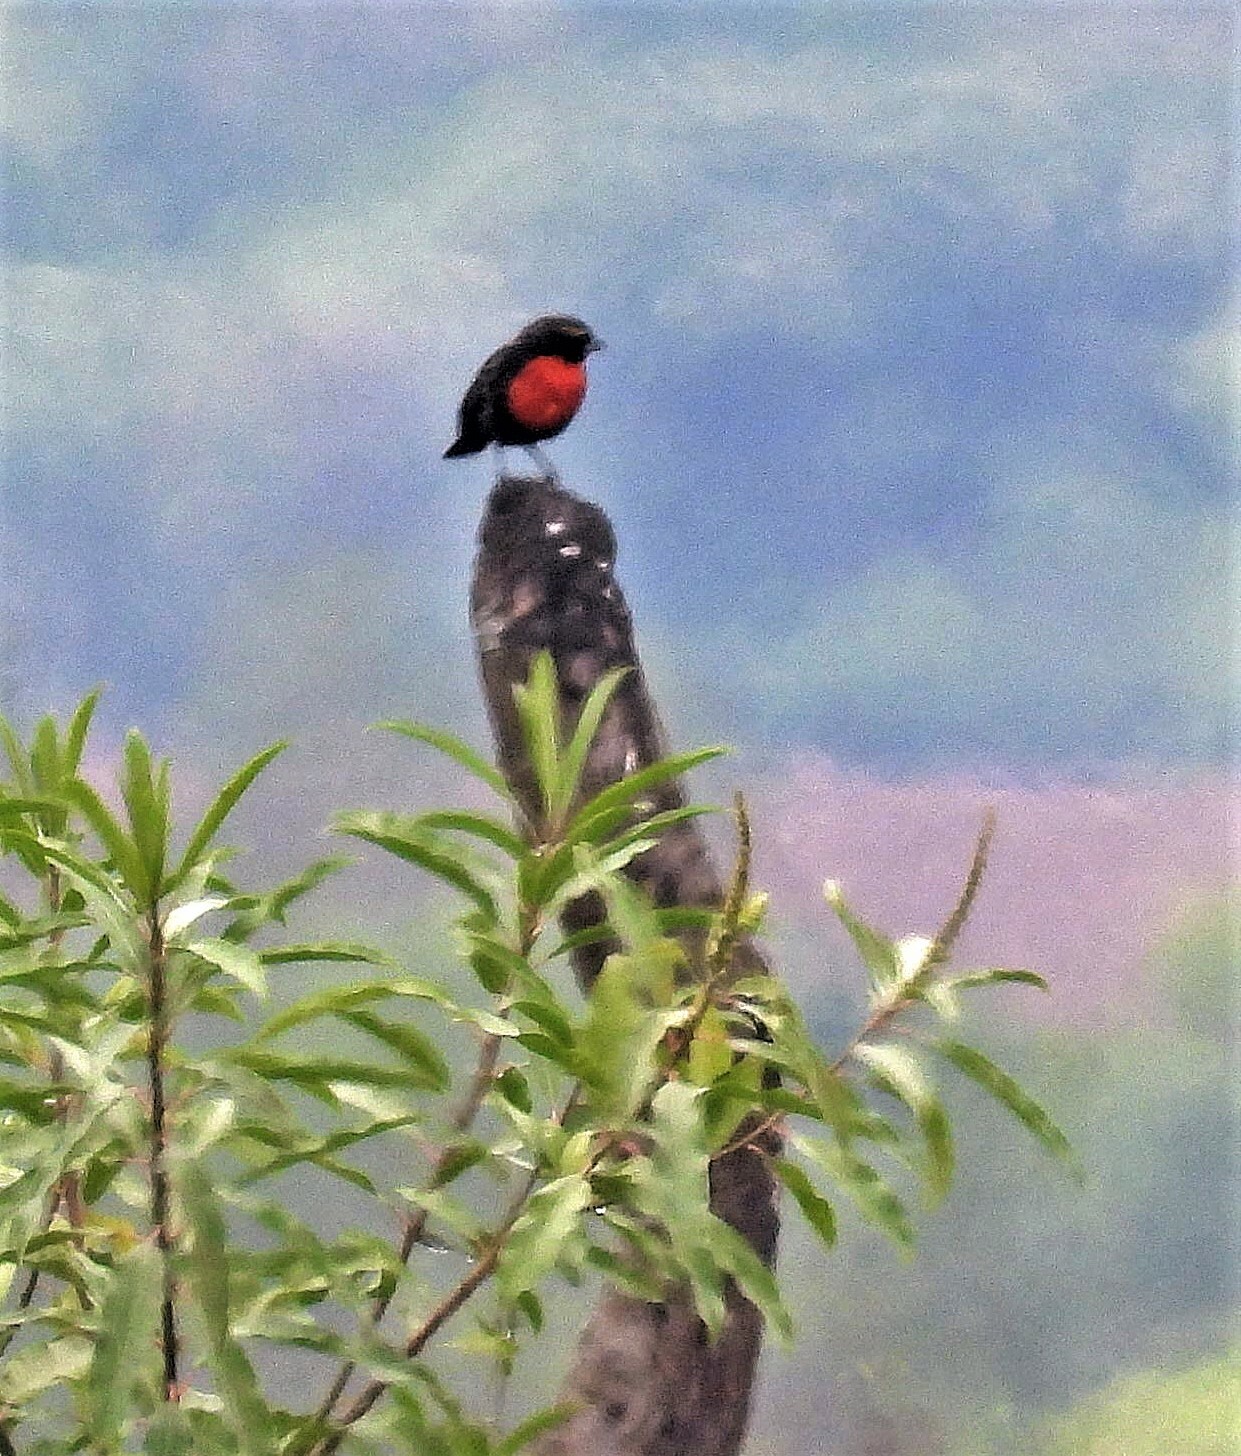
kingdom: Animalia
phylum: Chordata
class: Aves
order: Passeriformes
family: Icteridae
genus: Sturnella
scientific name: Sturnella superciliaris
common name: White-browed blackbird
